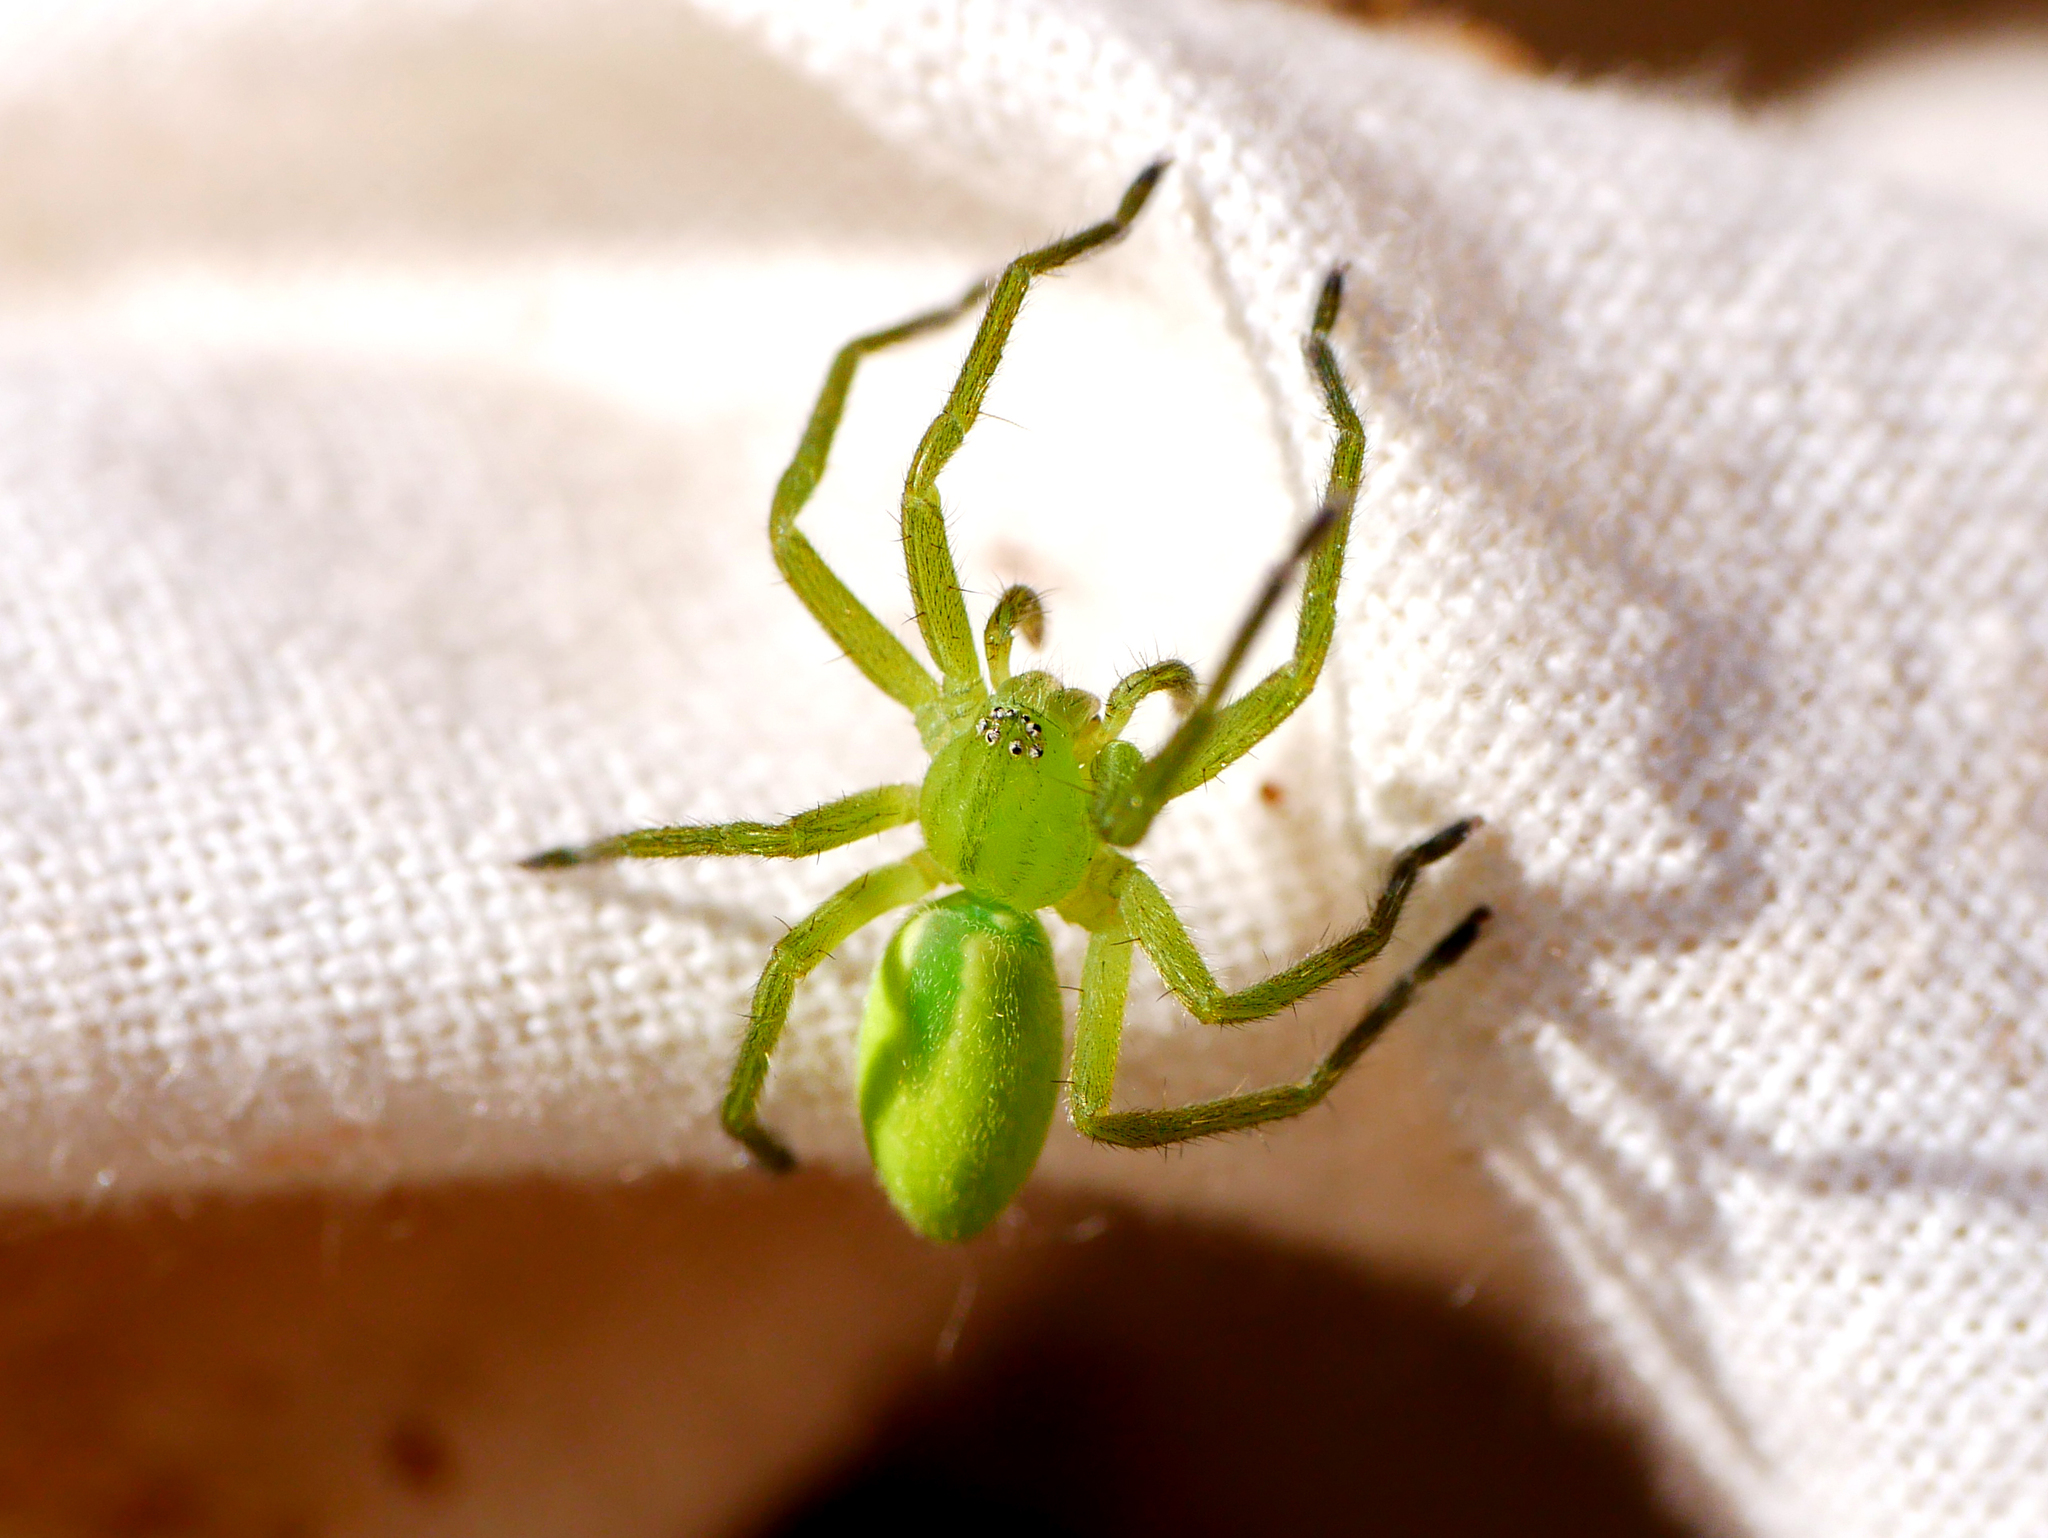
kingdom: Animalia
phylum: Arthropoda
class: Arachnida
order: Araneae
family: Sparassidae
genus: Micrommata
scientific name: Micrommata virescens
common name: Green spider
